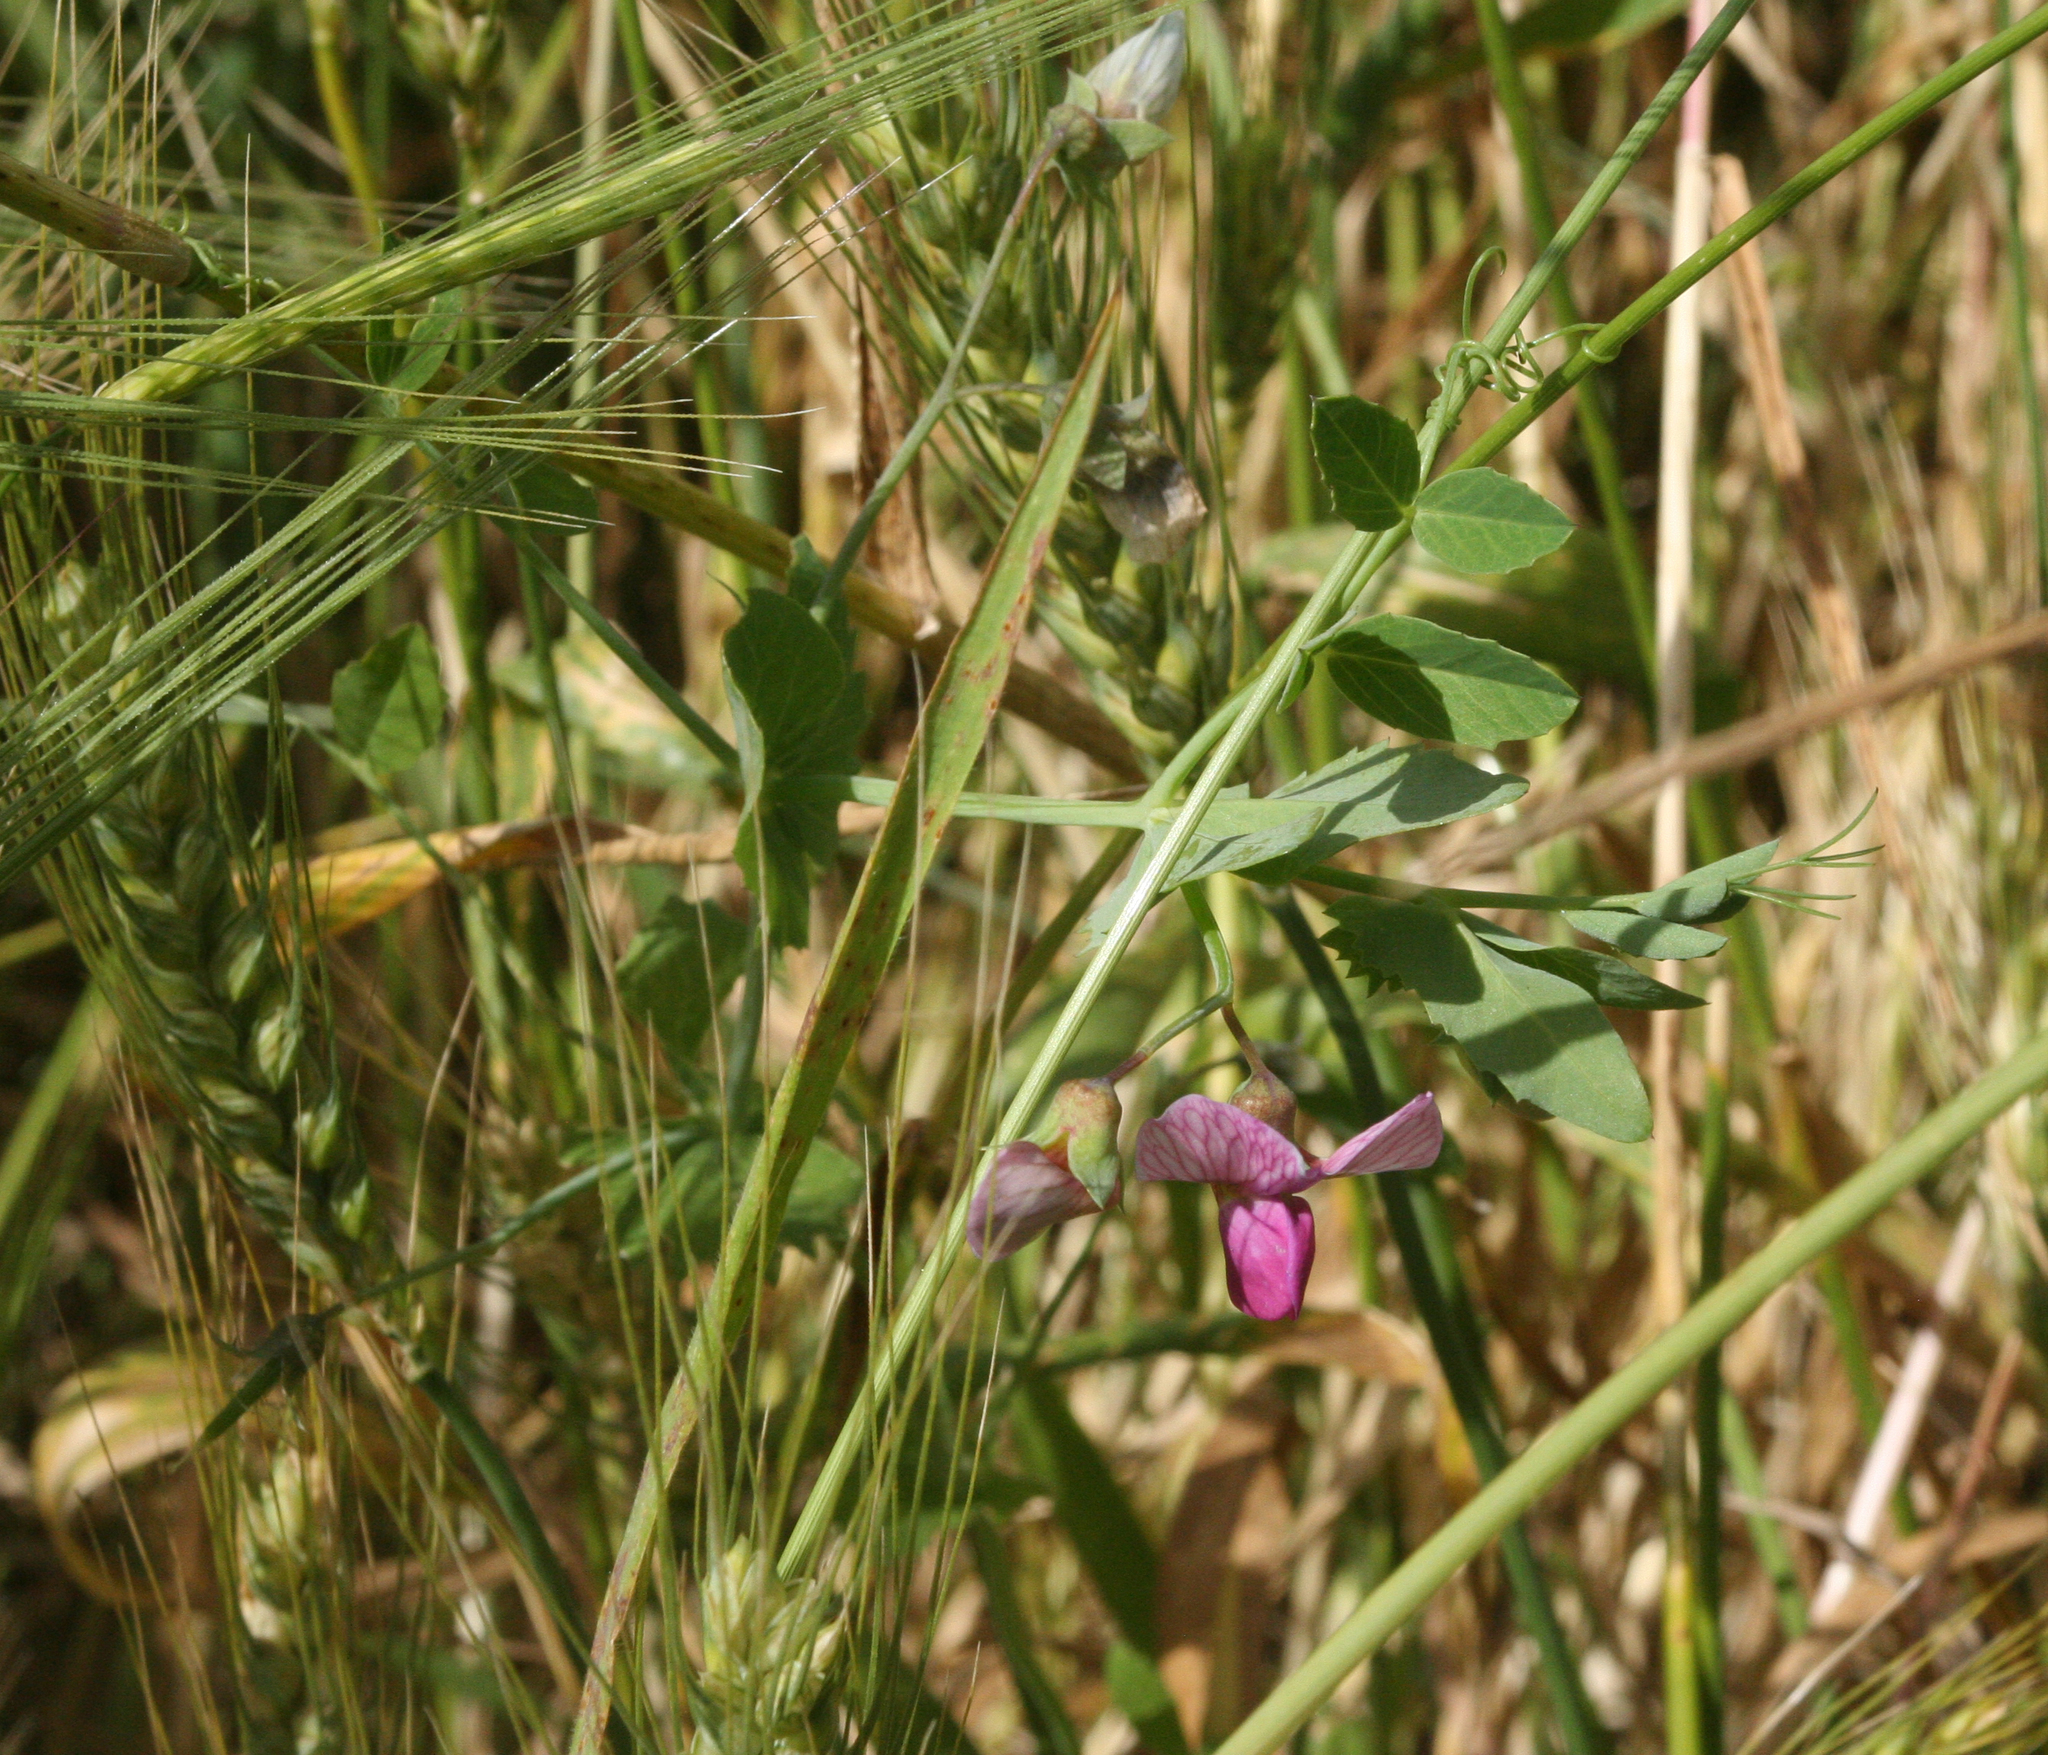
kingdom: Plantae
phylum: Tracheophyta
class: Magnoliopsida
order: Fabales
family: Fabaceae
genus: Lathyrus
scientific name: Lathyrus oleraceus
